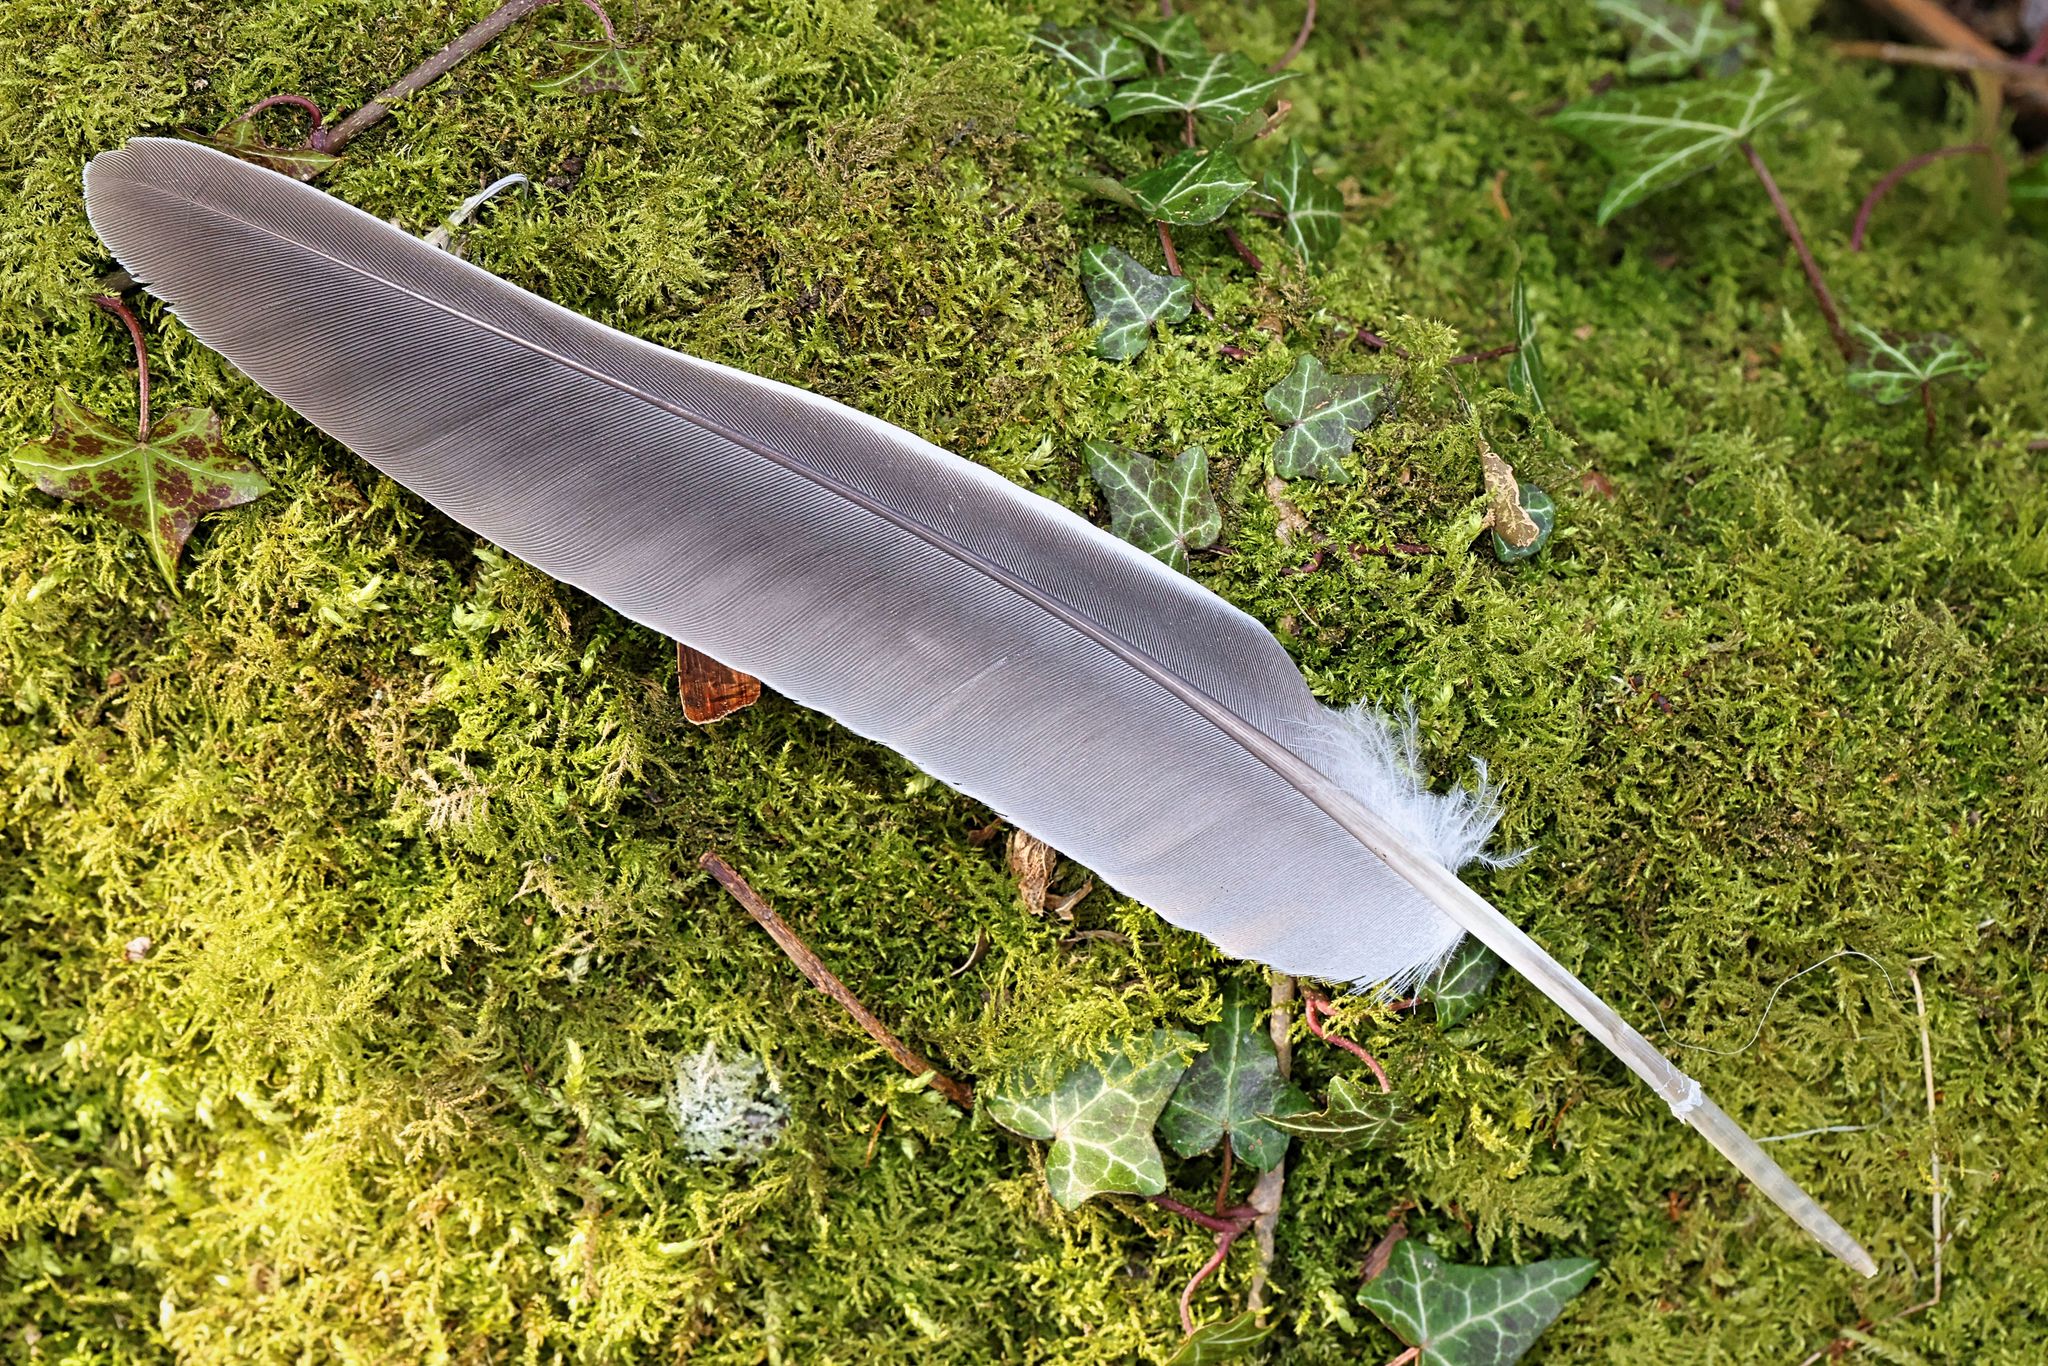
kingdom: Animalia
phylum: Chordata
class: Aves
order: Columbiformes
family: Columbidae
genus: Columba
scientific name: Columba palumbus
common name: Common wood pigeon
